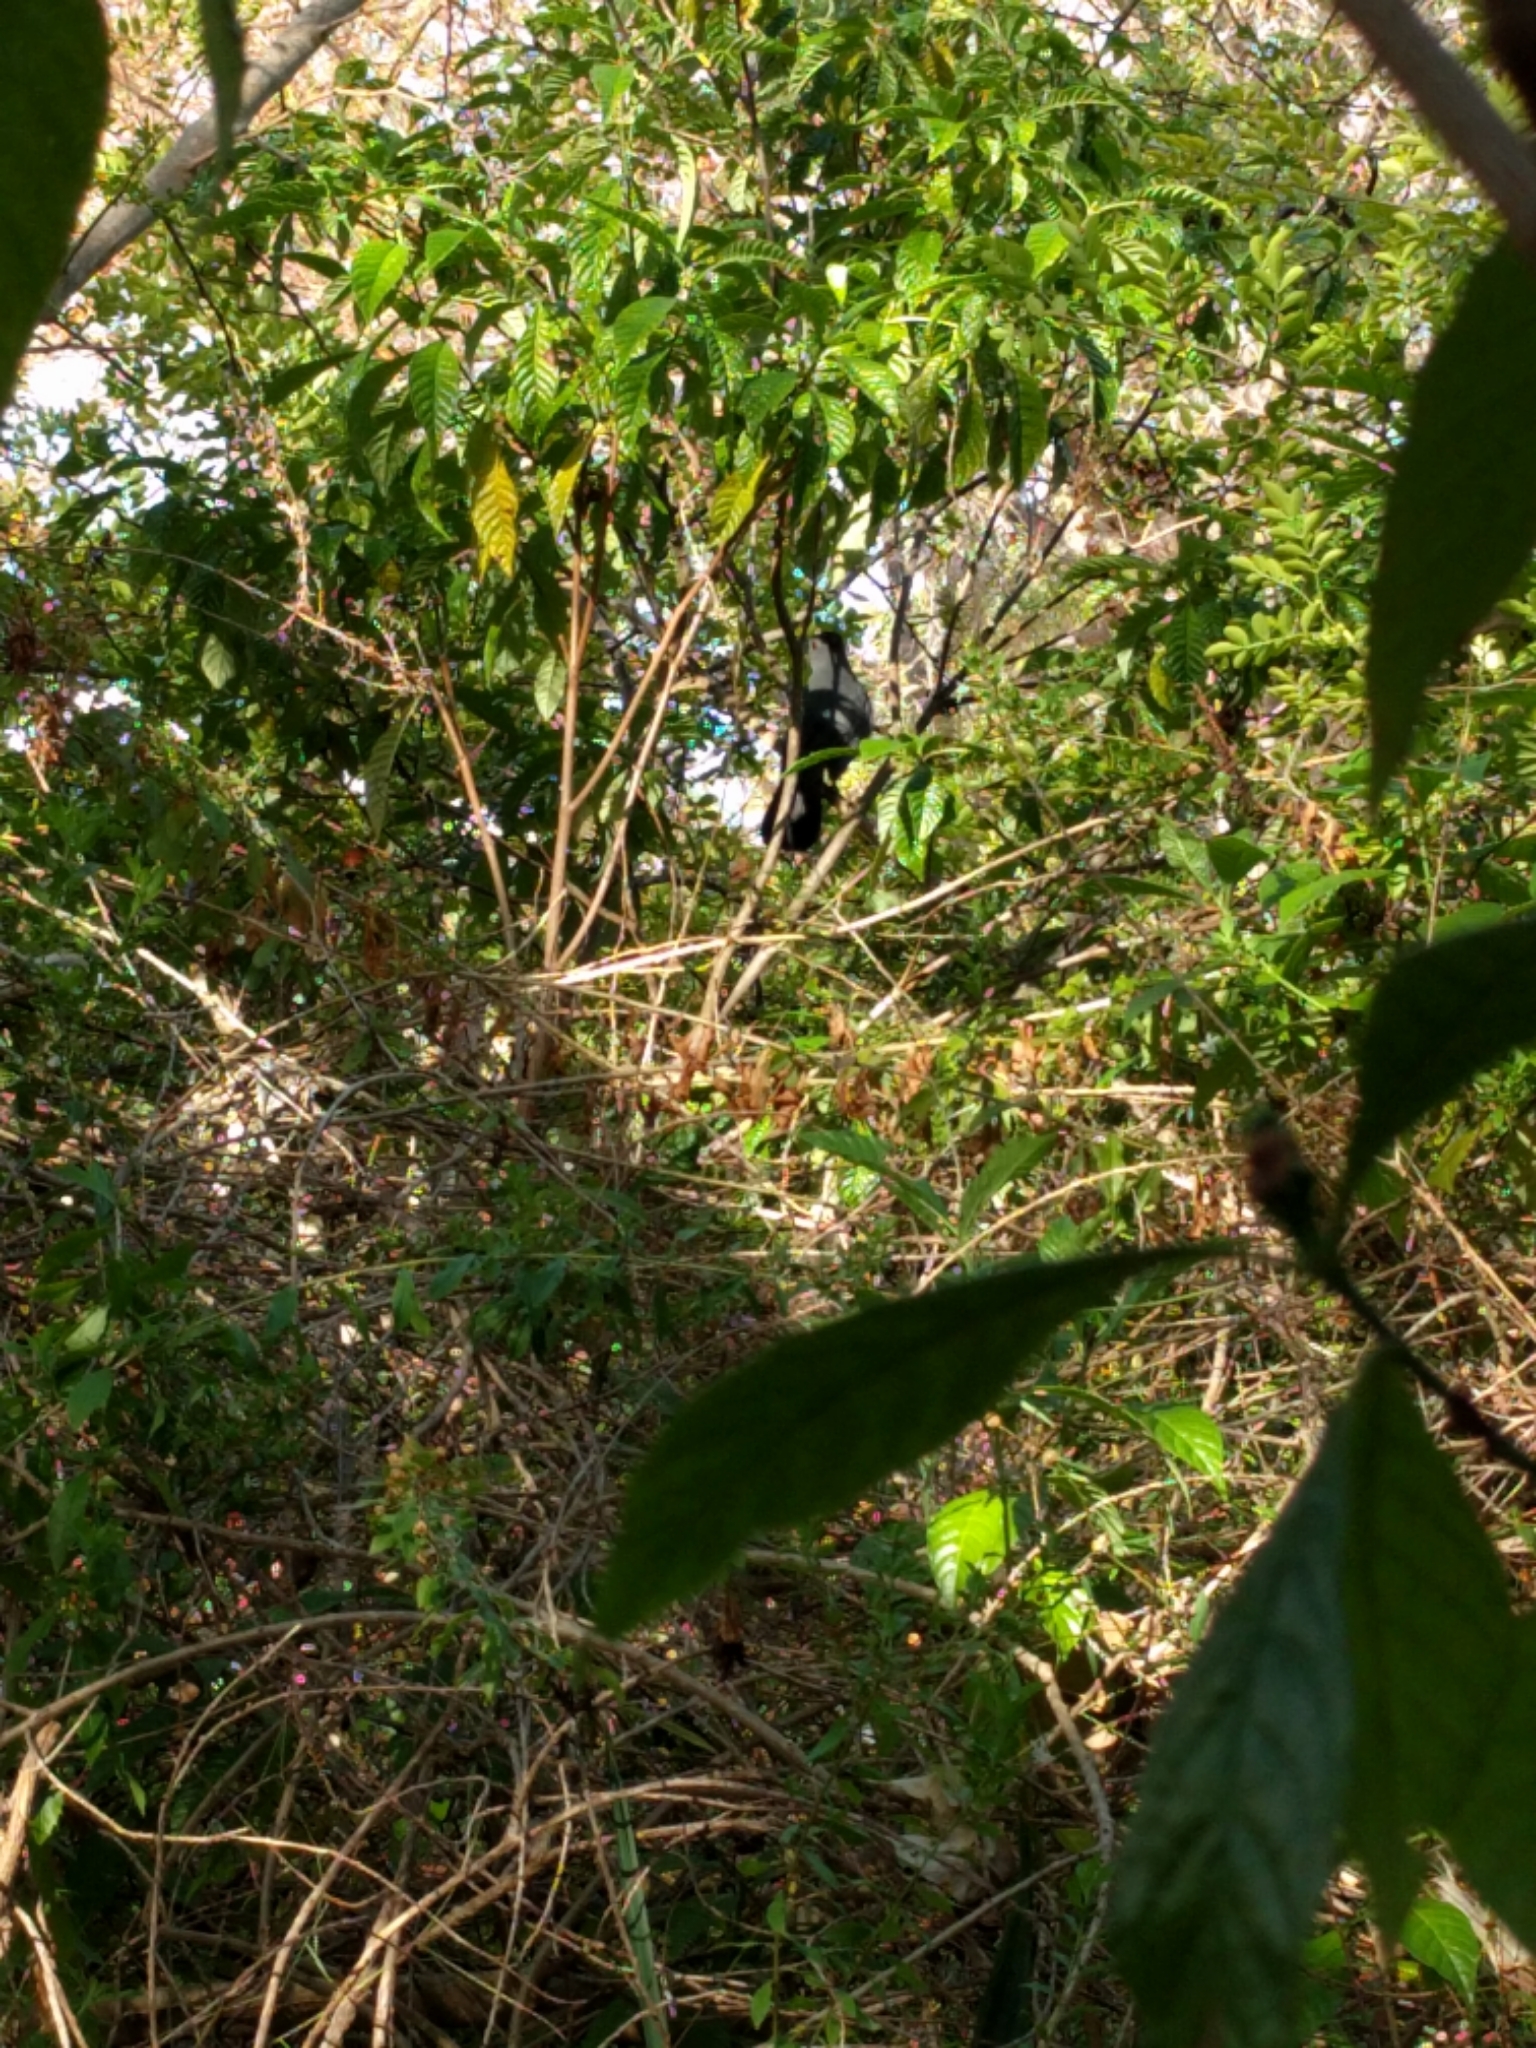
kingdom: Animalia
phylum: Chordata
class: Aves
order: Passeriformes
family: Mimidae
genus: Dumetella
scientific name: Dumetella carolinensis
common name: Gray catbird
